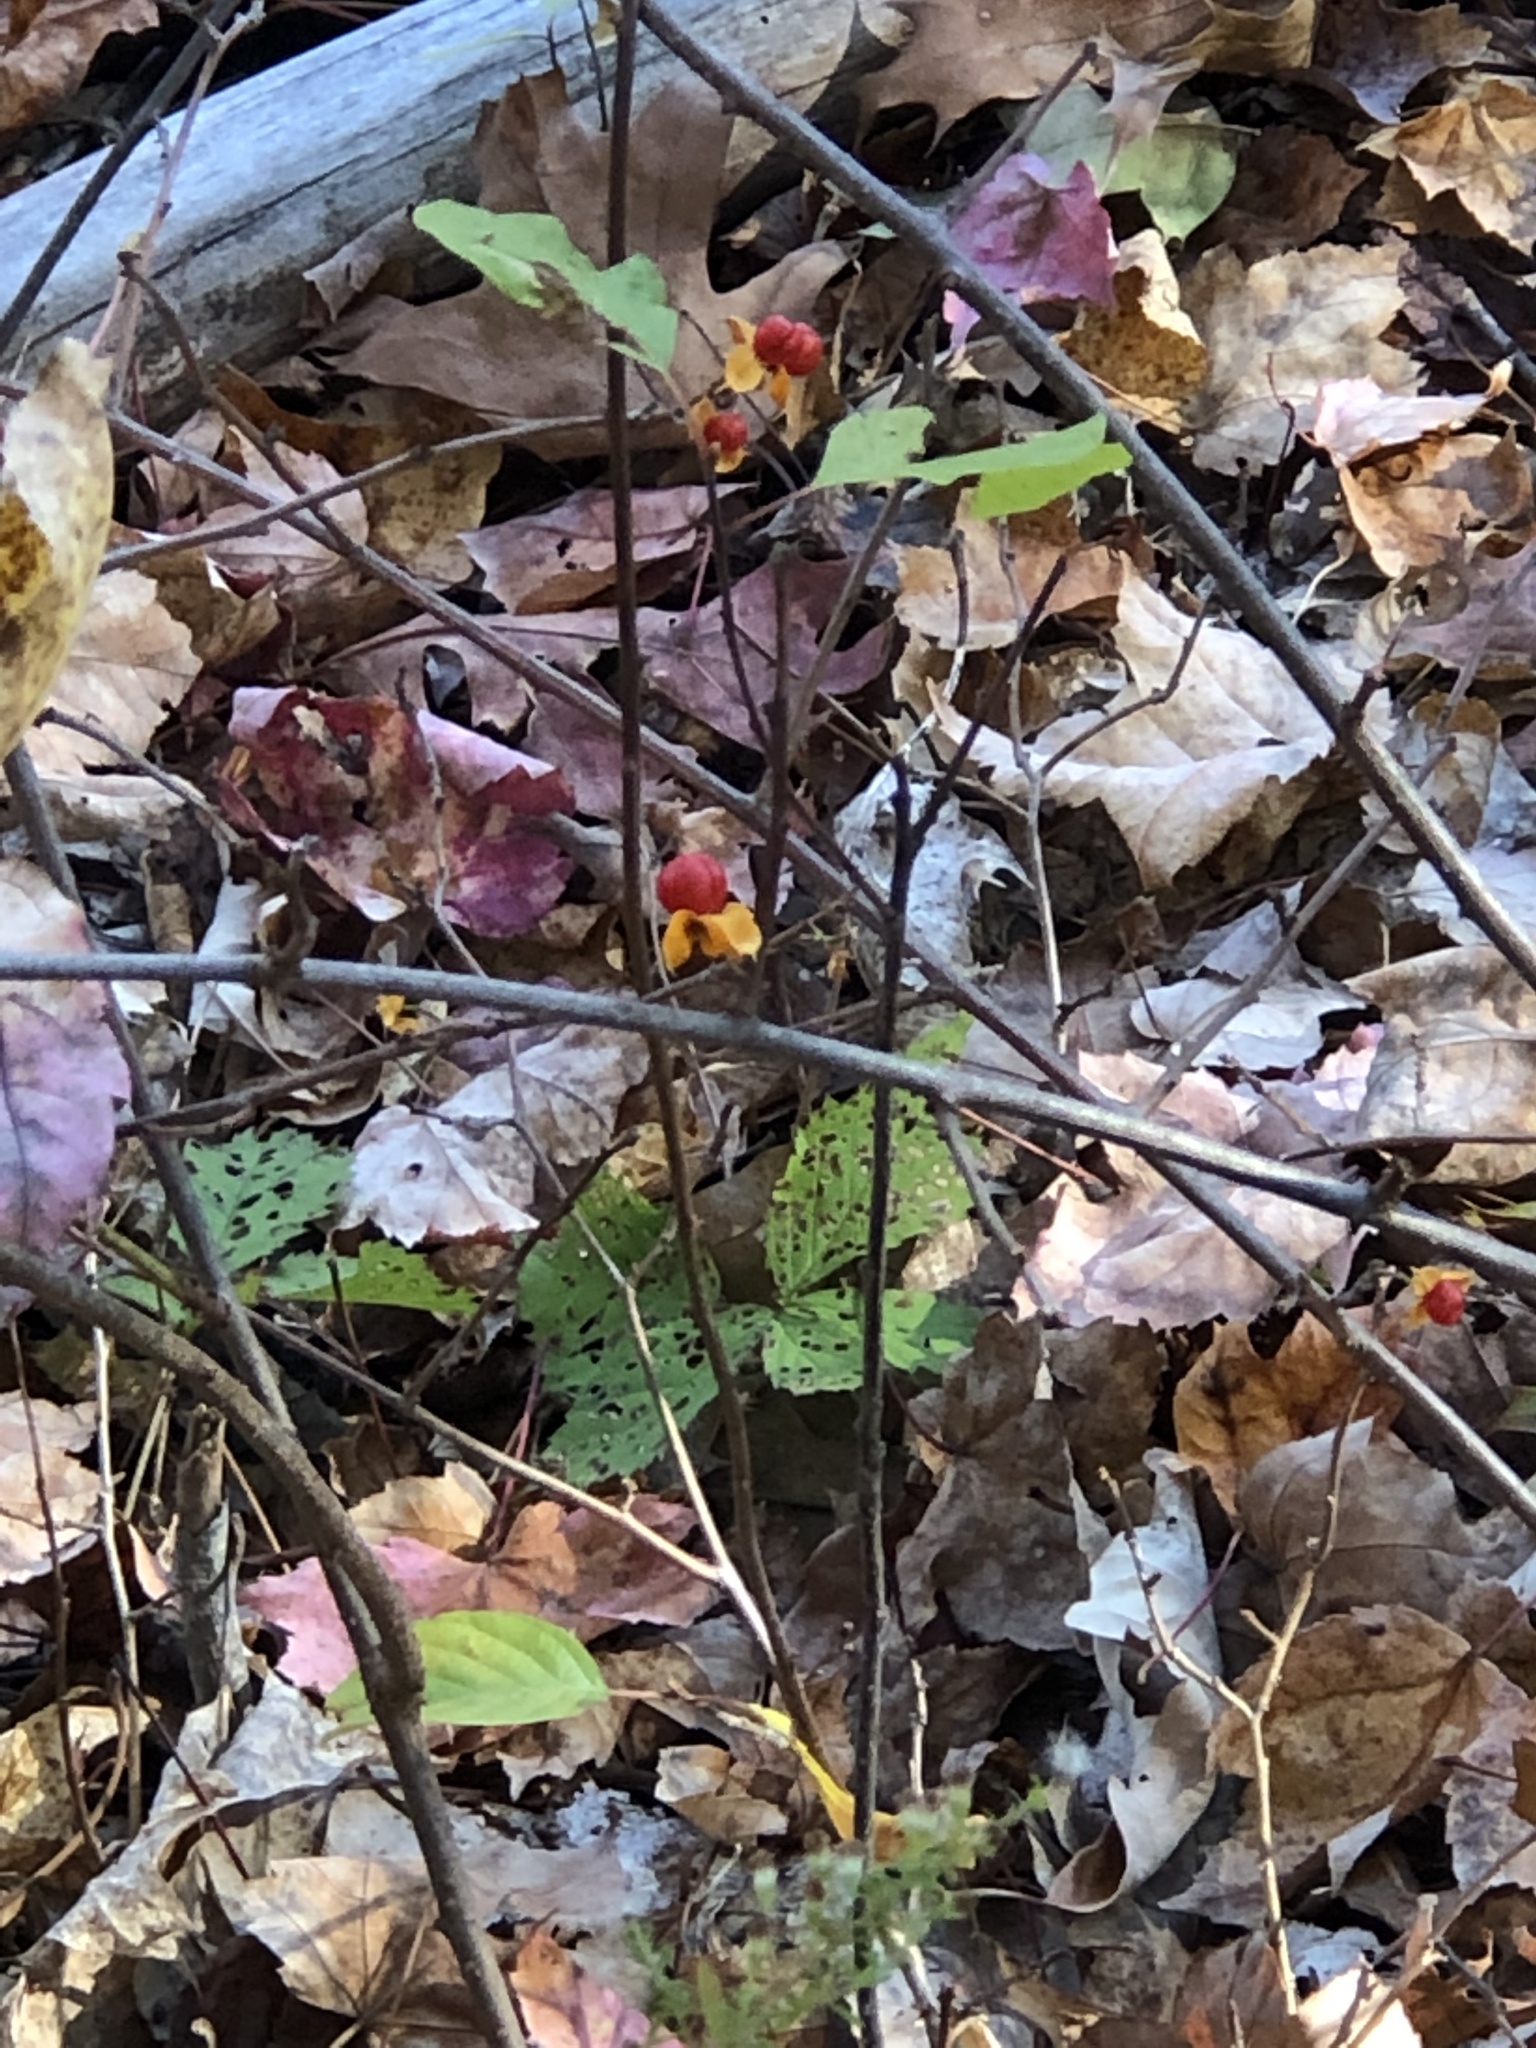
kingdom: Plantae
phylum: Tracheophyta
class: Magnoliopsida
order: Celastrales
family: Celastraceae
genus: Celastrus
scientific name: Celastrus orbiculatus
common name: Oriental bittersweet
